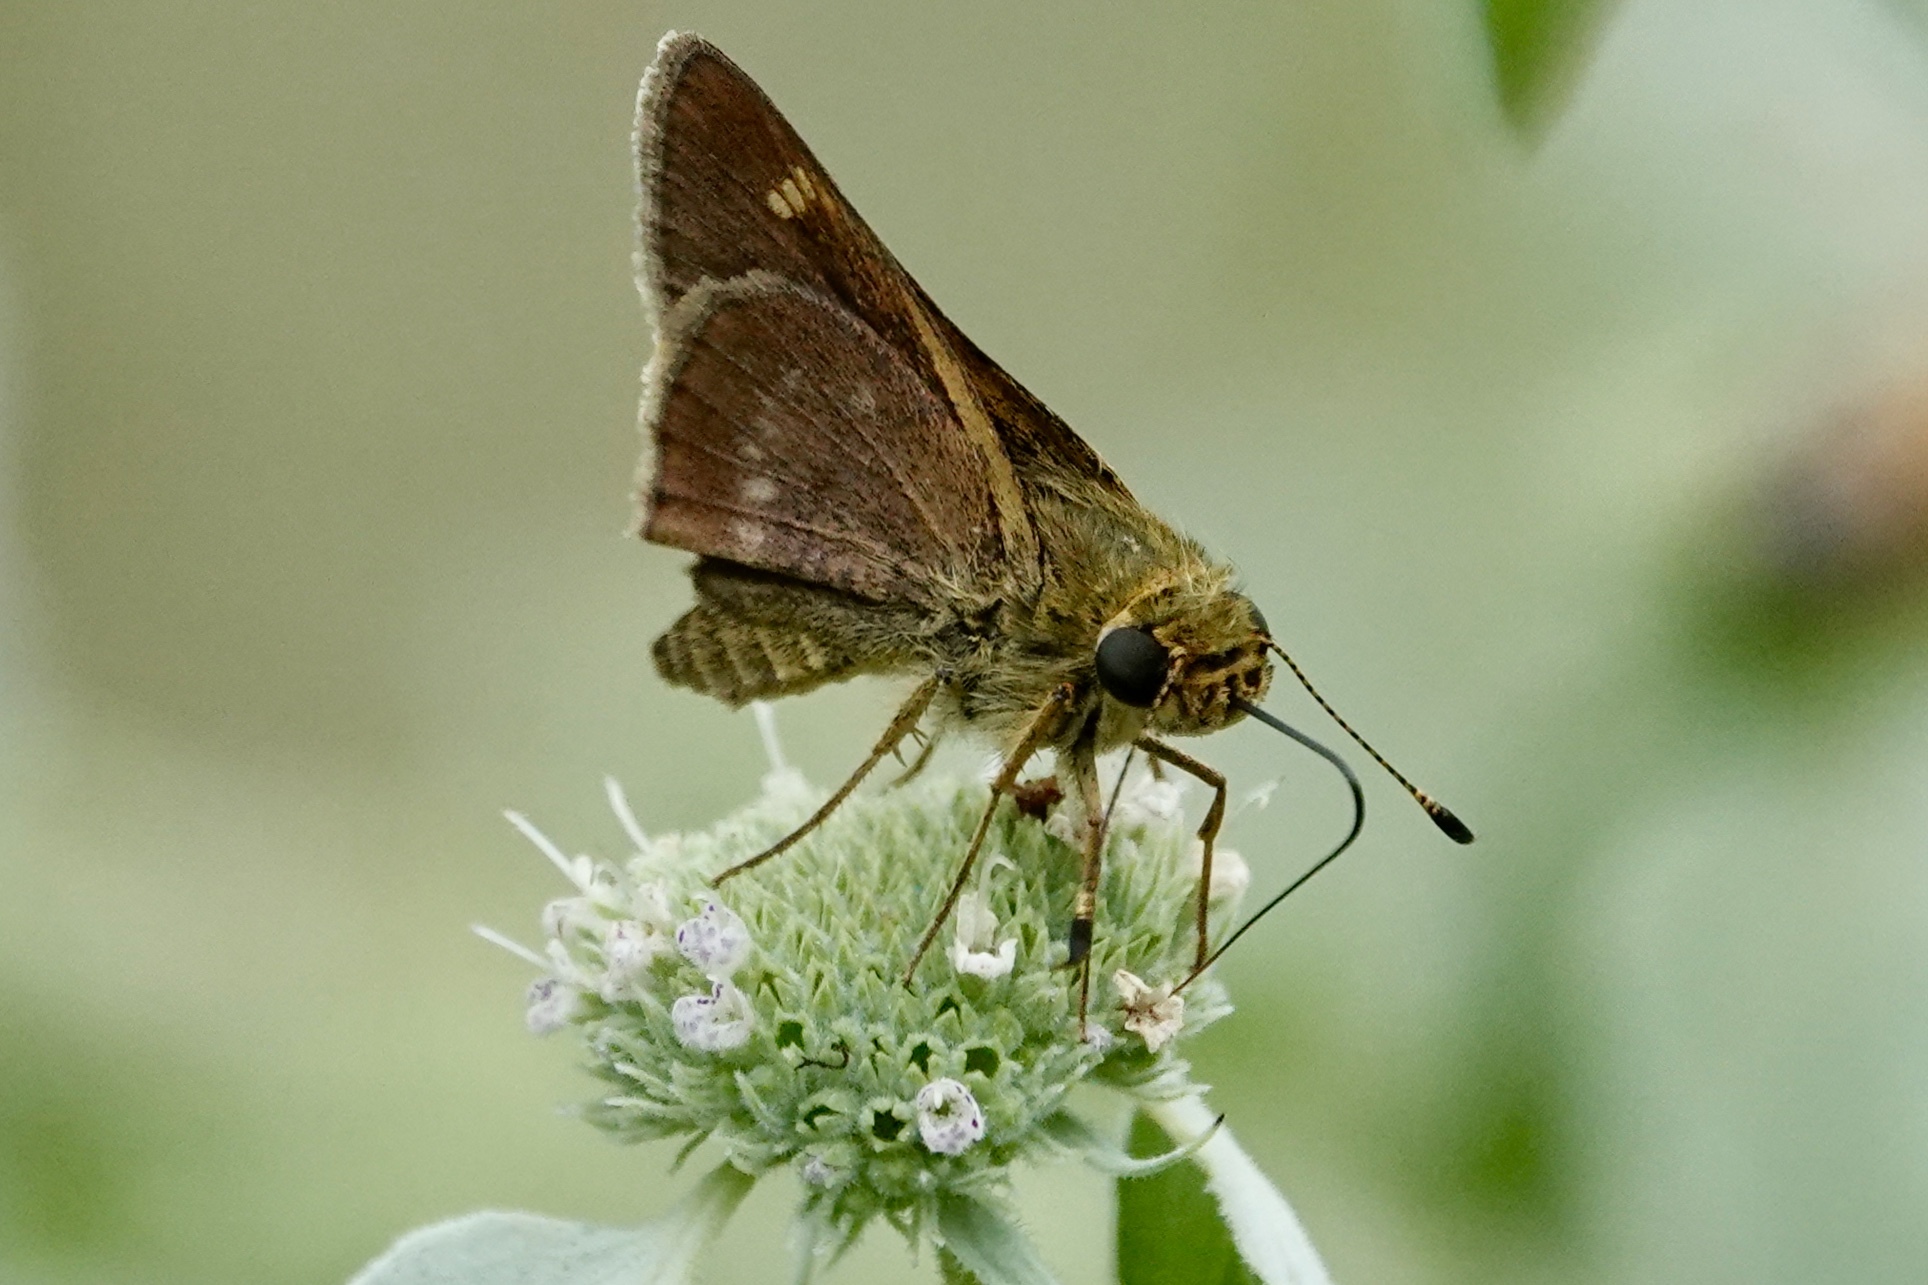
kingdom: Animalia
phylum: Arthropoda
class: Insecta
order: Lepidoptera
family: Hesperiidae
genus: Vernia
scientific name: Vernia verna
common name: Little glassywing
